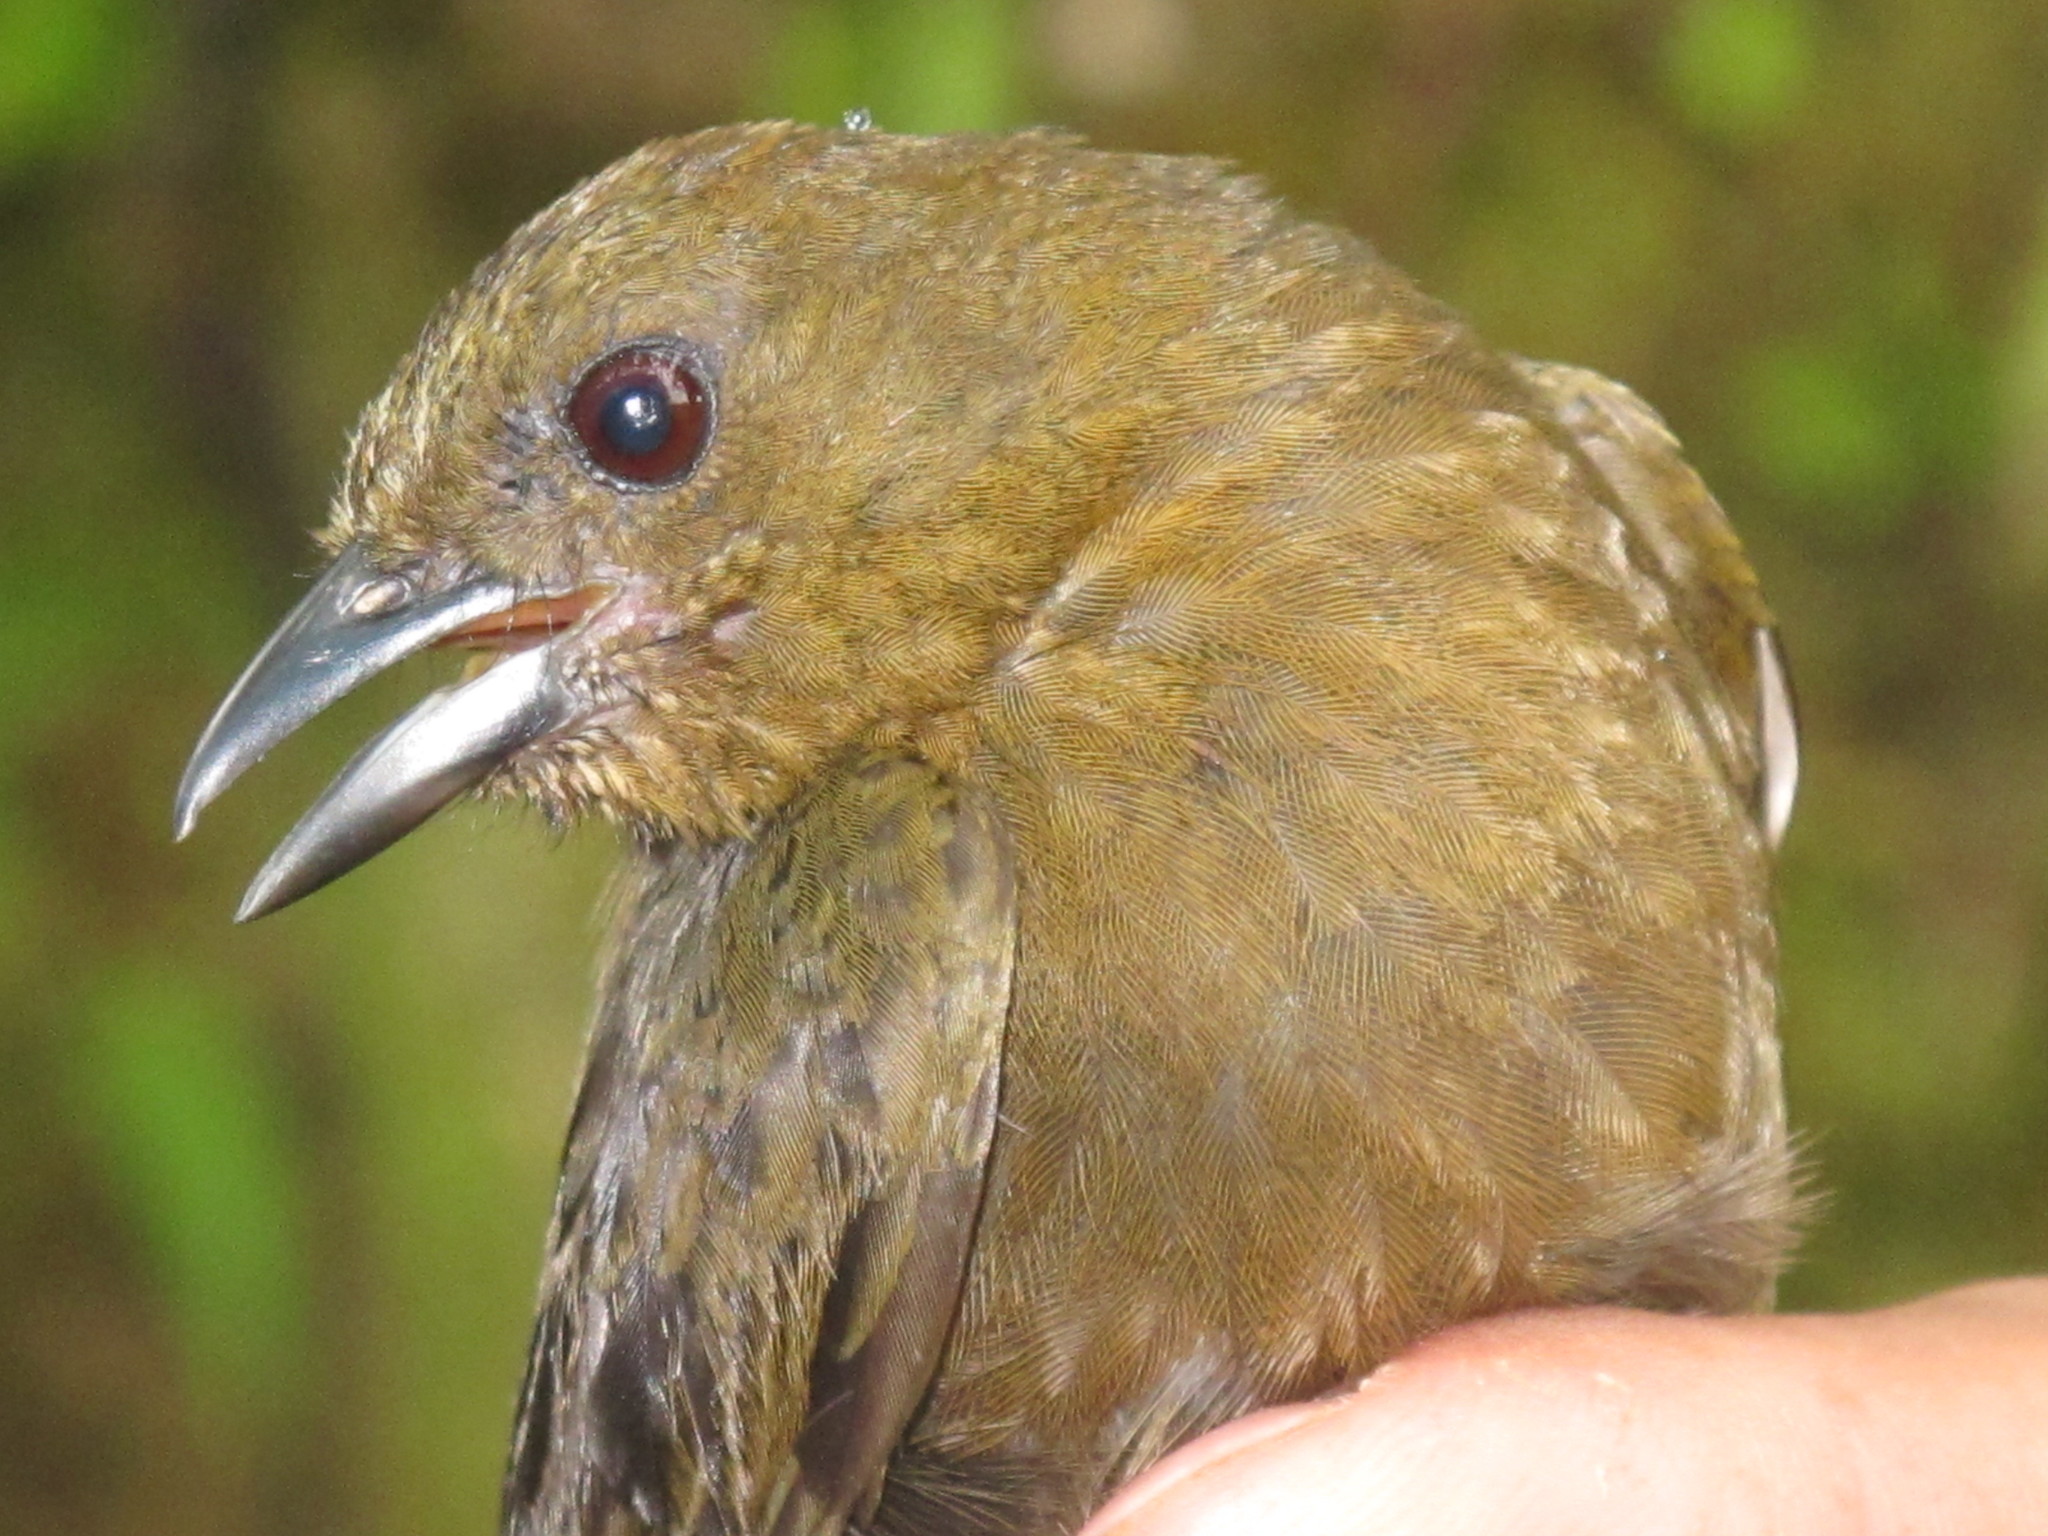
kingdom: Animalia
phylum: Chordata
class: Aves
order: Passeriformes
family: Thraupidae
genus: Tachyphonus
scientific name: Tachyphonus delatrii
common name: Tawny-crested tanager
